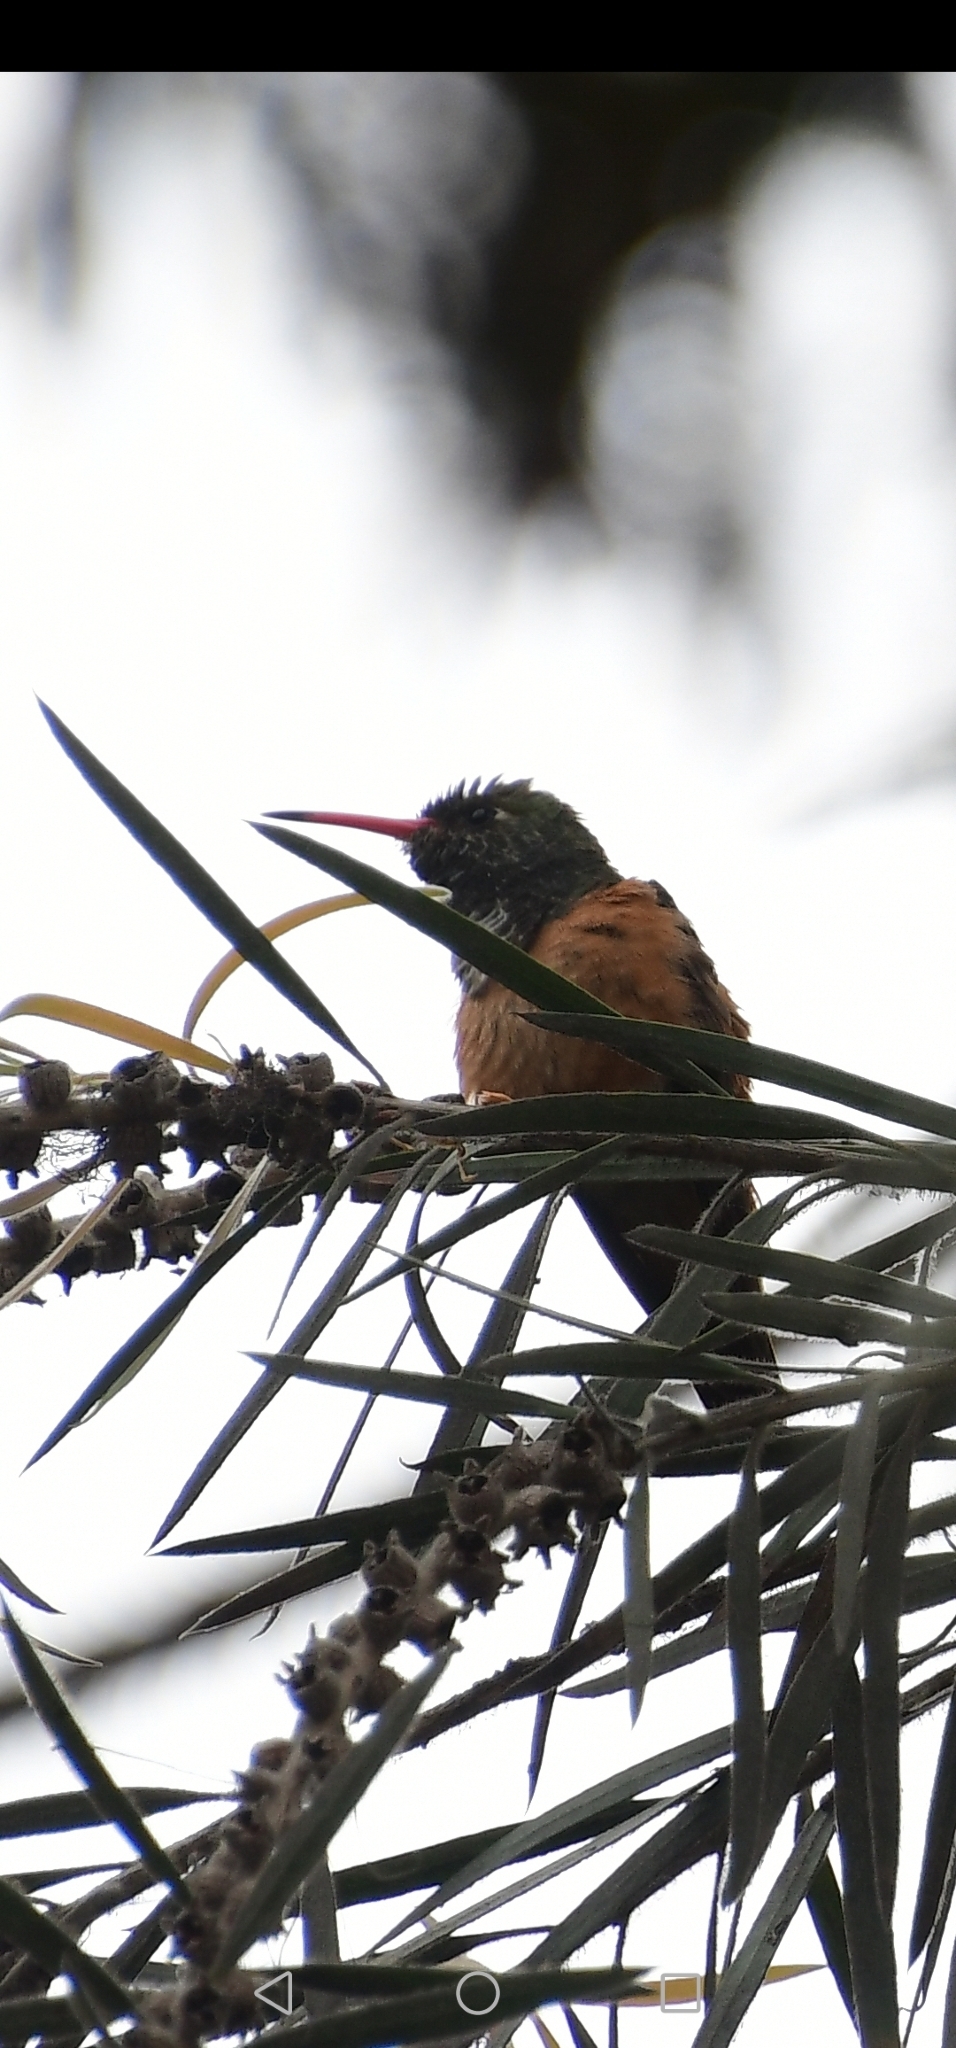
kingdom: Animalia
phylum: Chordata
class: Aves
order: Apodiformes
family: Trochilidae
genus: Amazilis
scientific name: Amazilis amazilia
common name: Amazilia hummingbird
